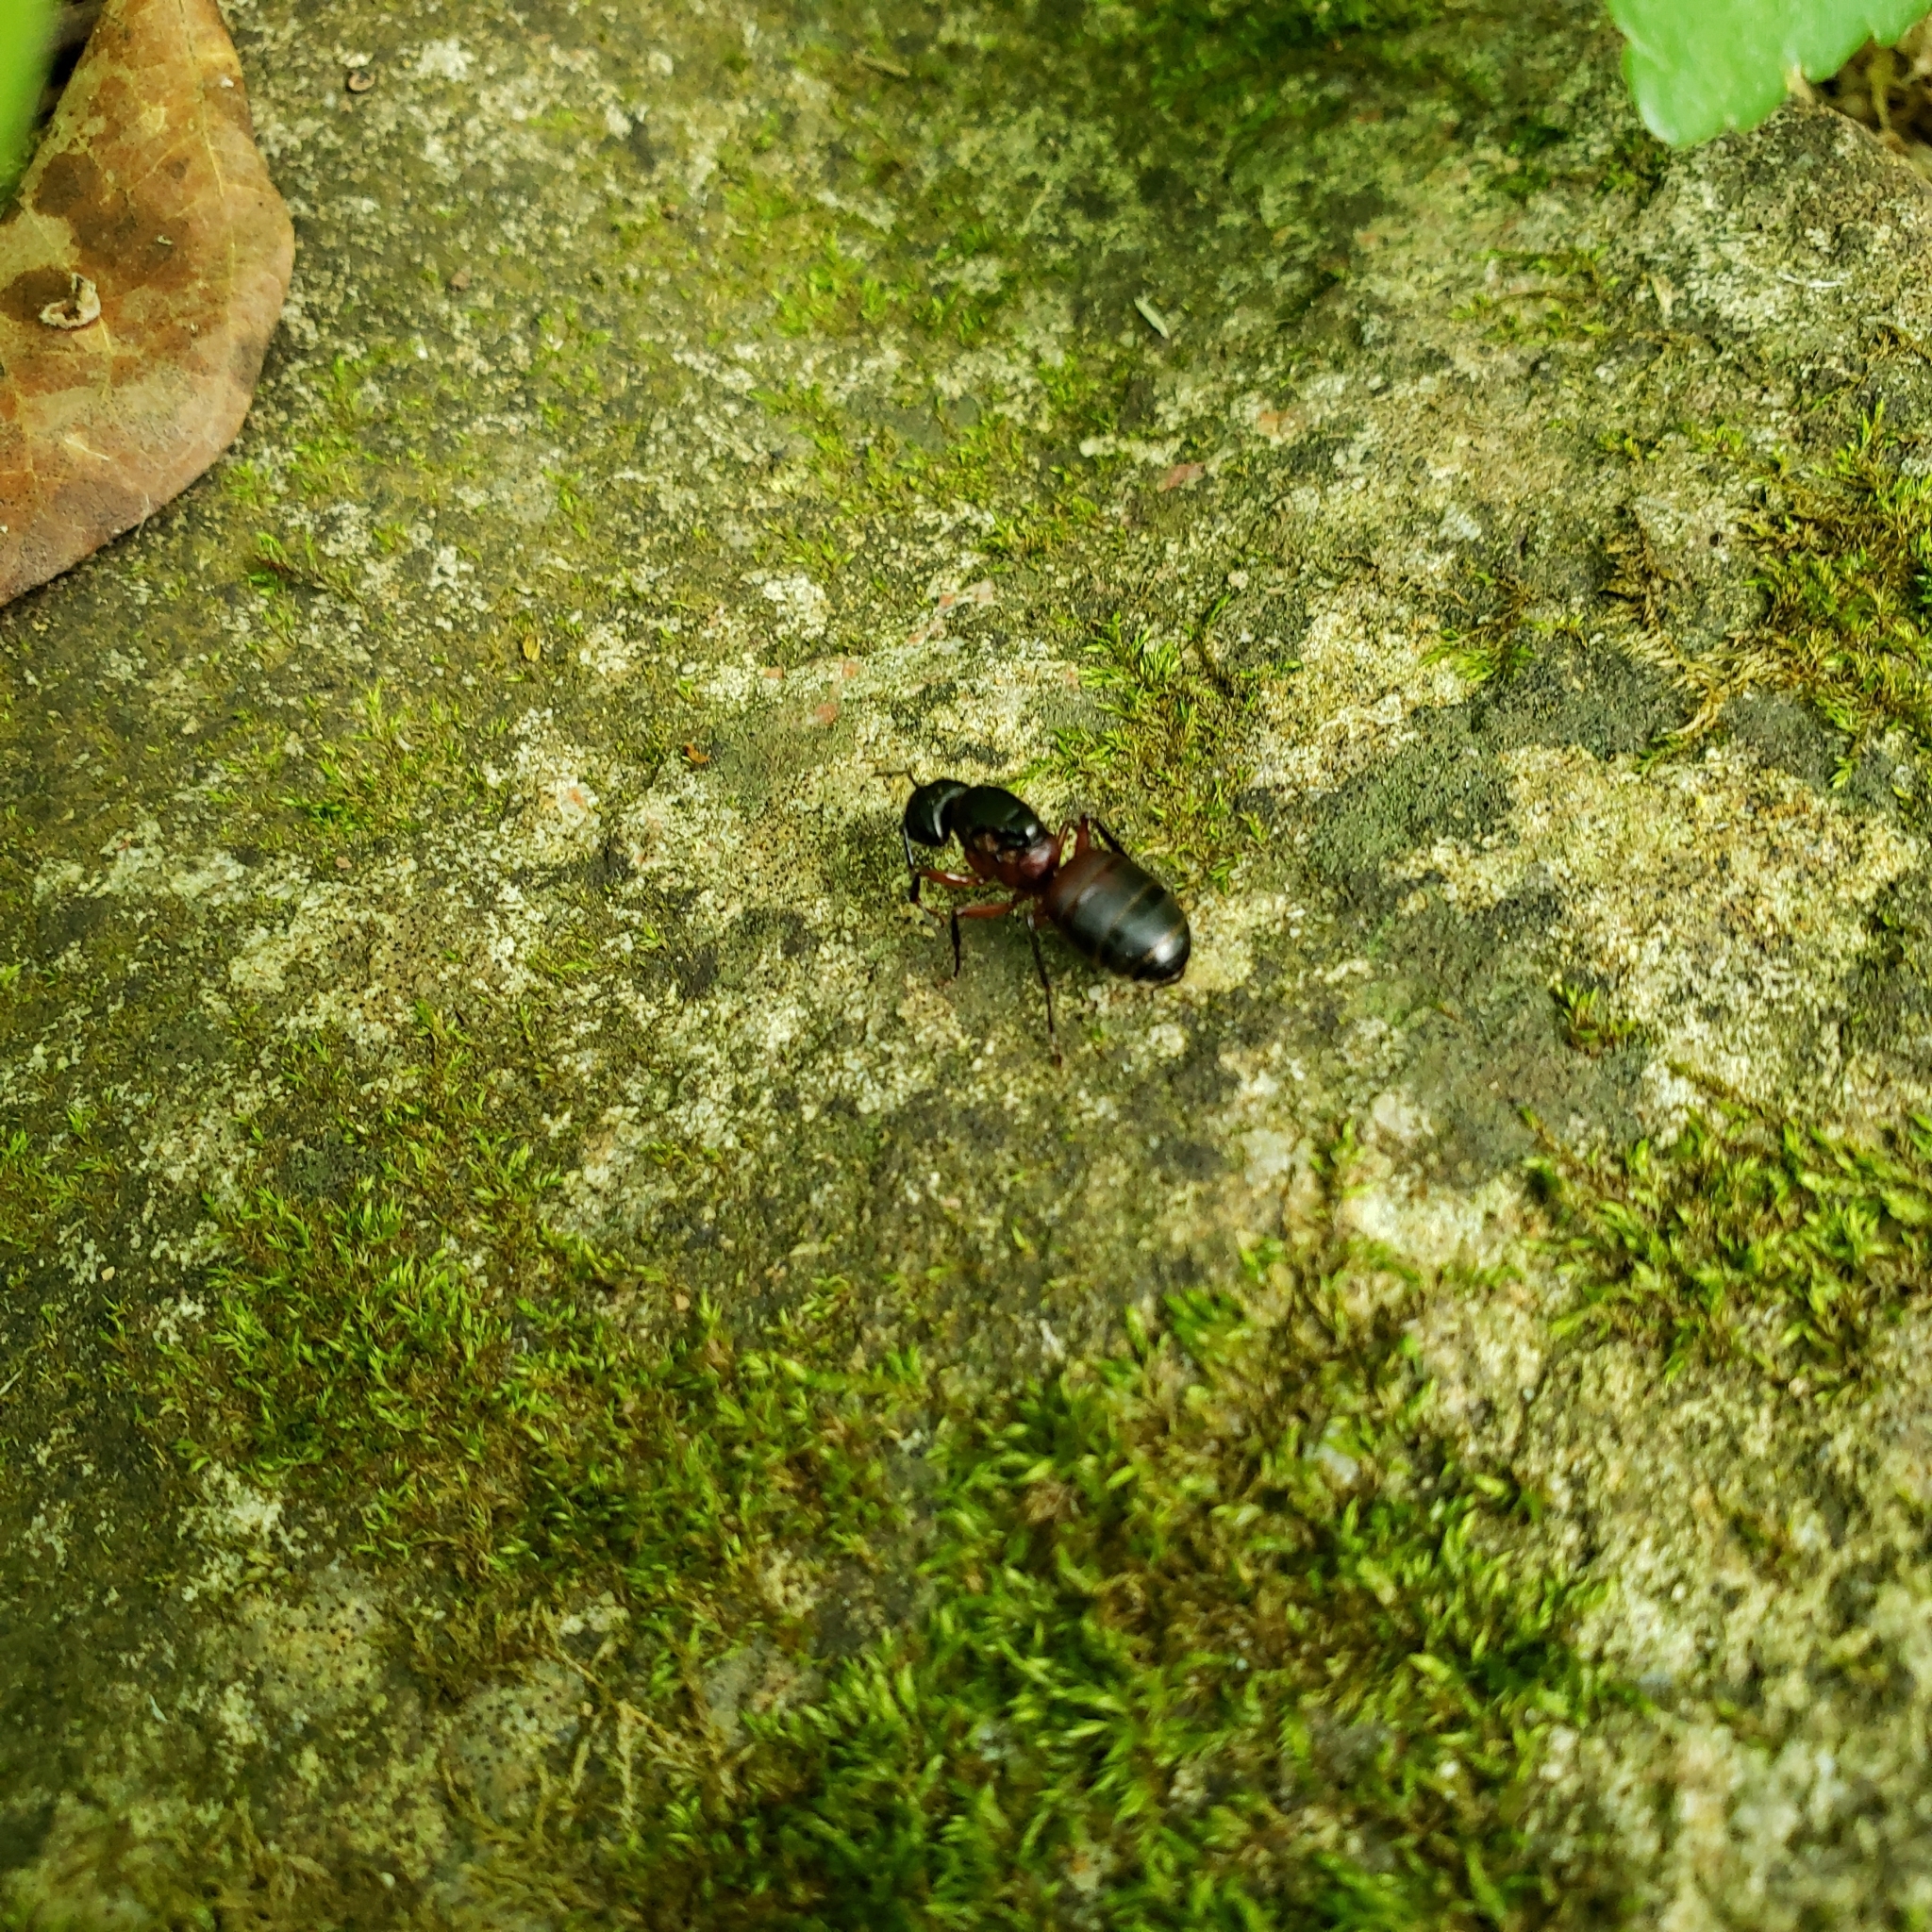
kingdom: Animalia
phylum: Arthropoda
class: Insecta
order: Hymenoptera
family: Formicidae
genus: Camponotus
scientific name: Camponotus chromaiodes
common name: Red carpenter ant
